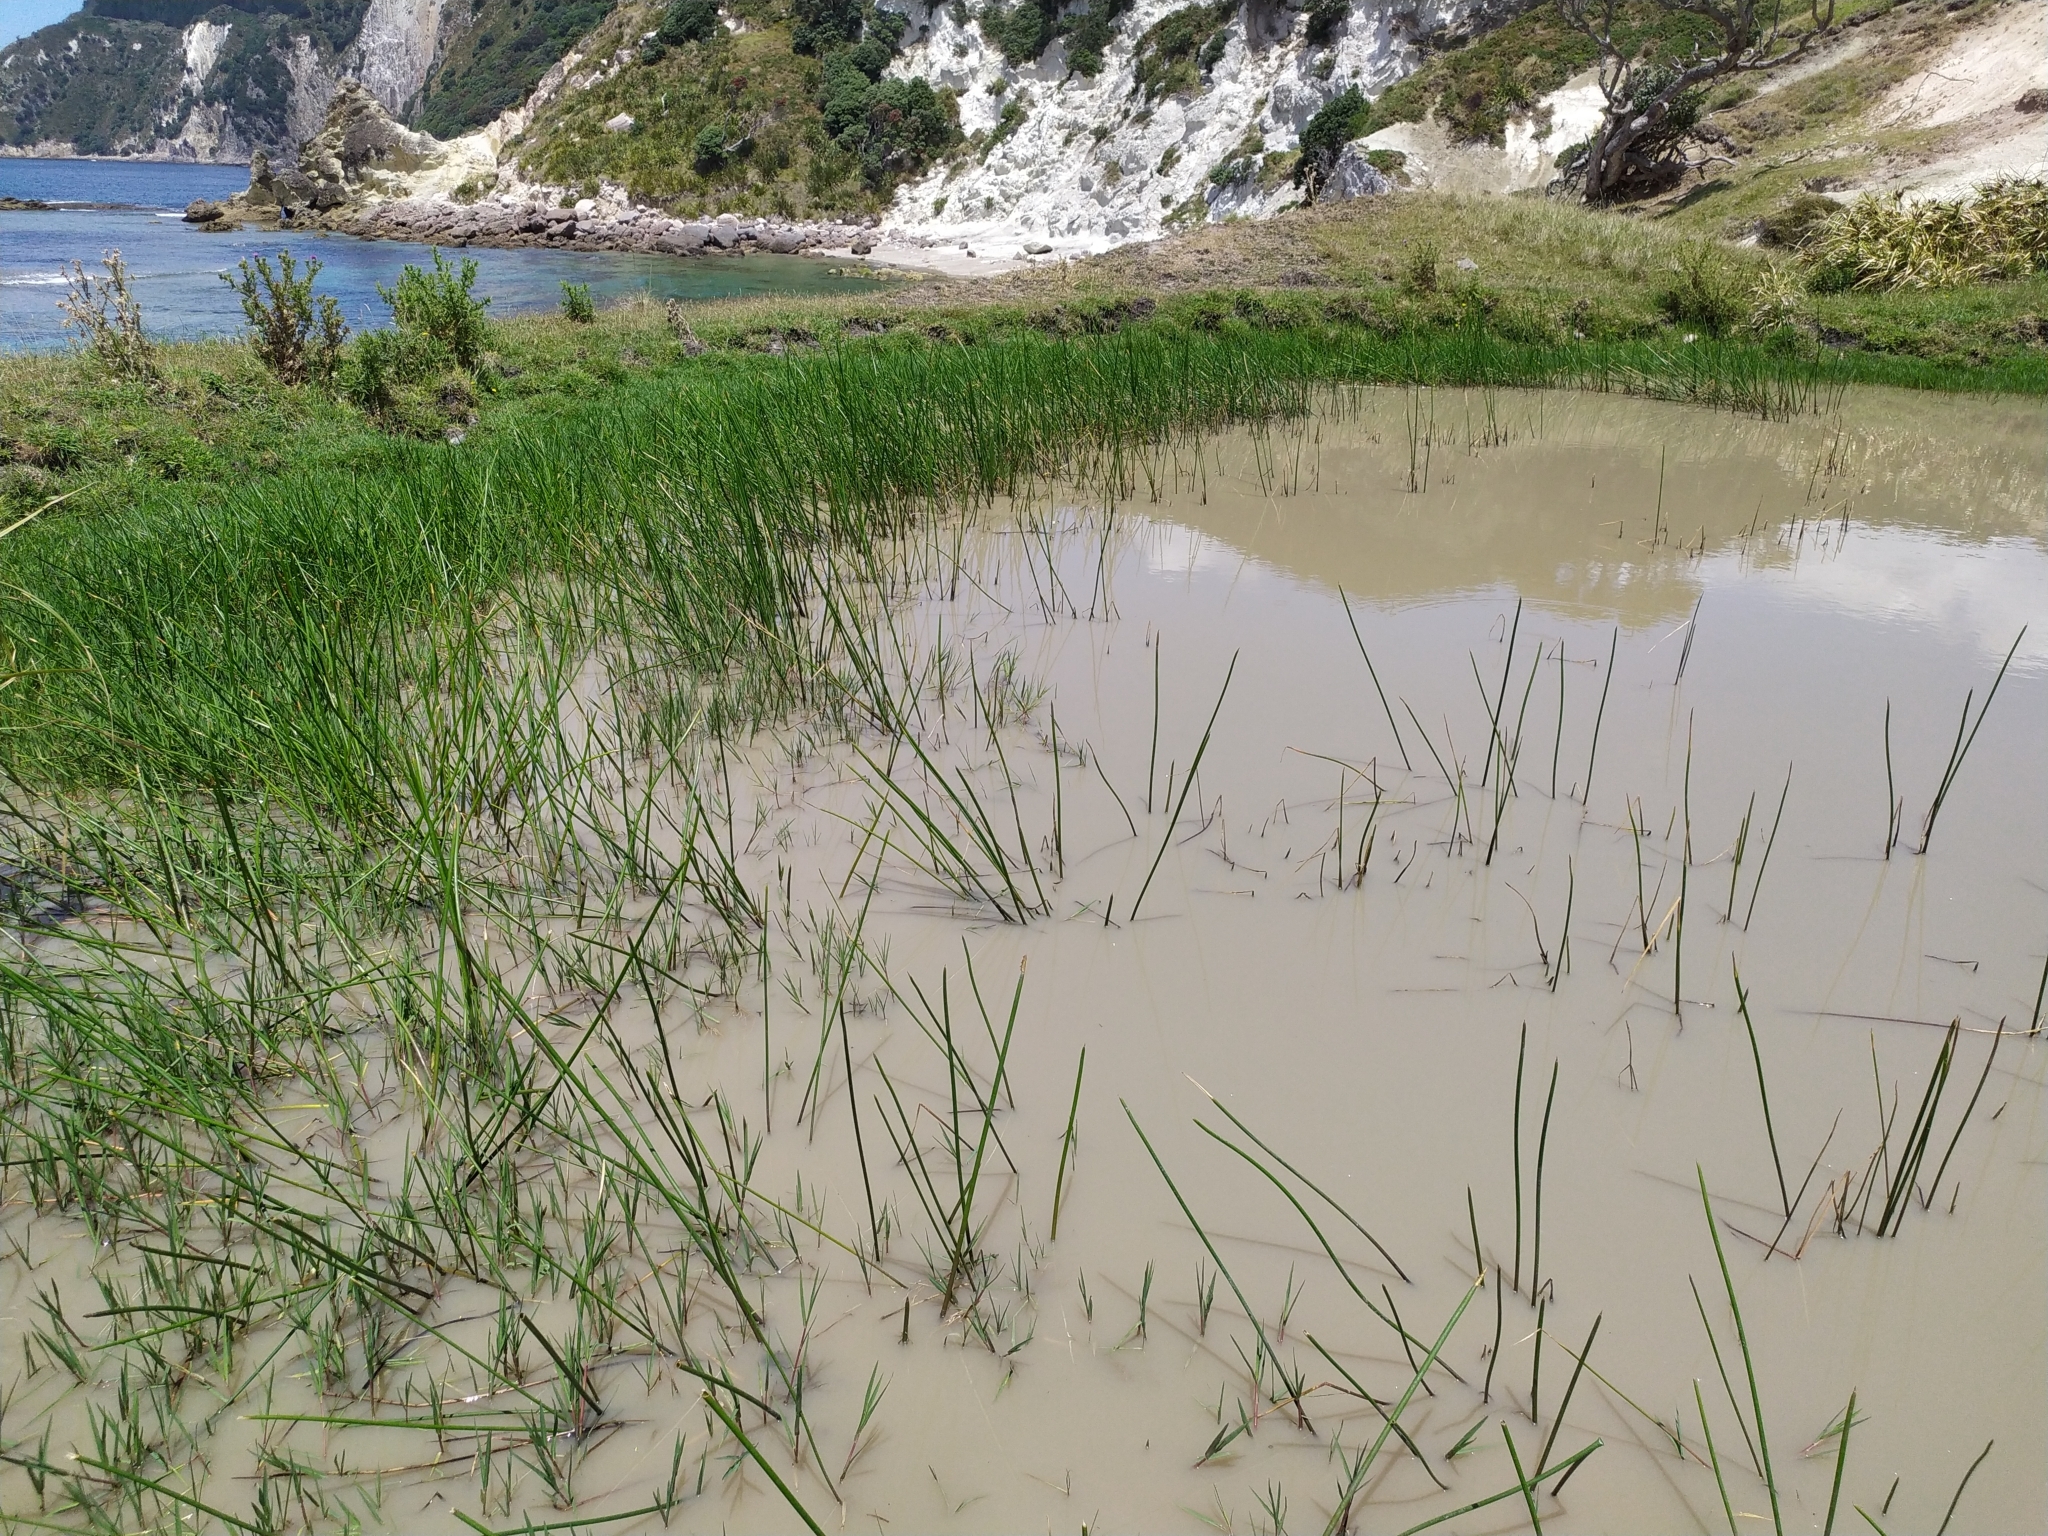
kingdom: Plantae
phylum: Tracheophyta
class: Liliopsida
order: Poales
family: Cyperaceae
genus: Eleocharis
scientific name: Eleocharis sphacelata
